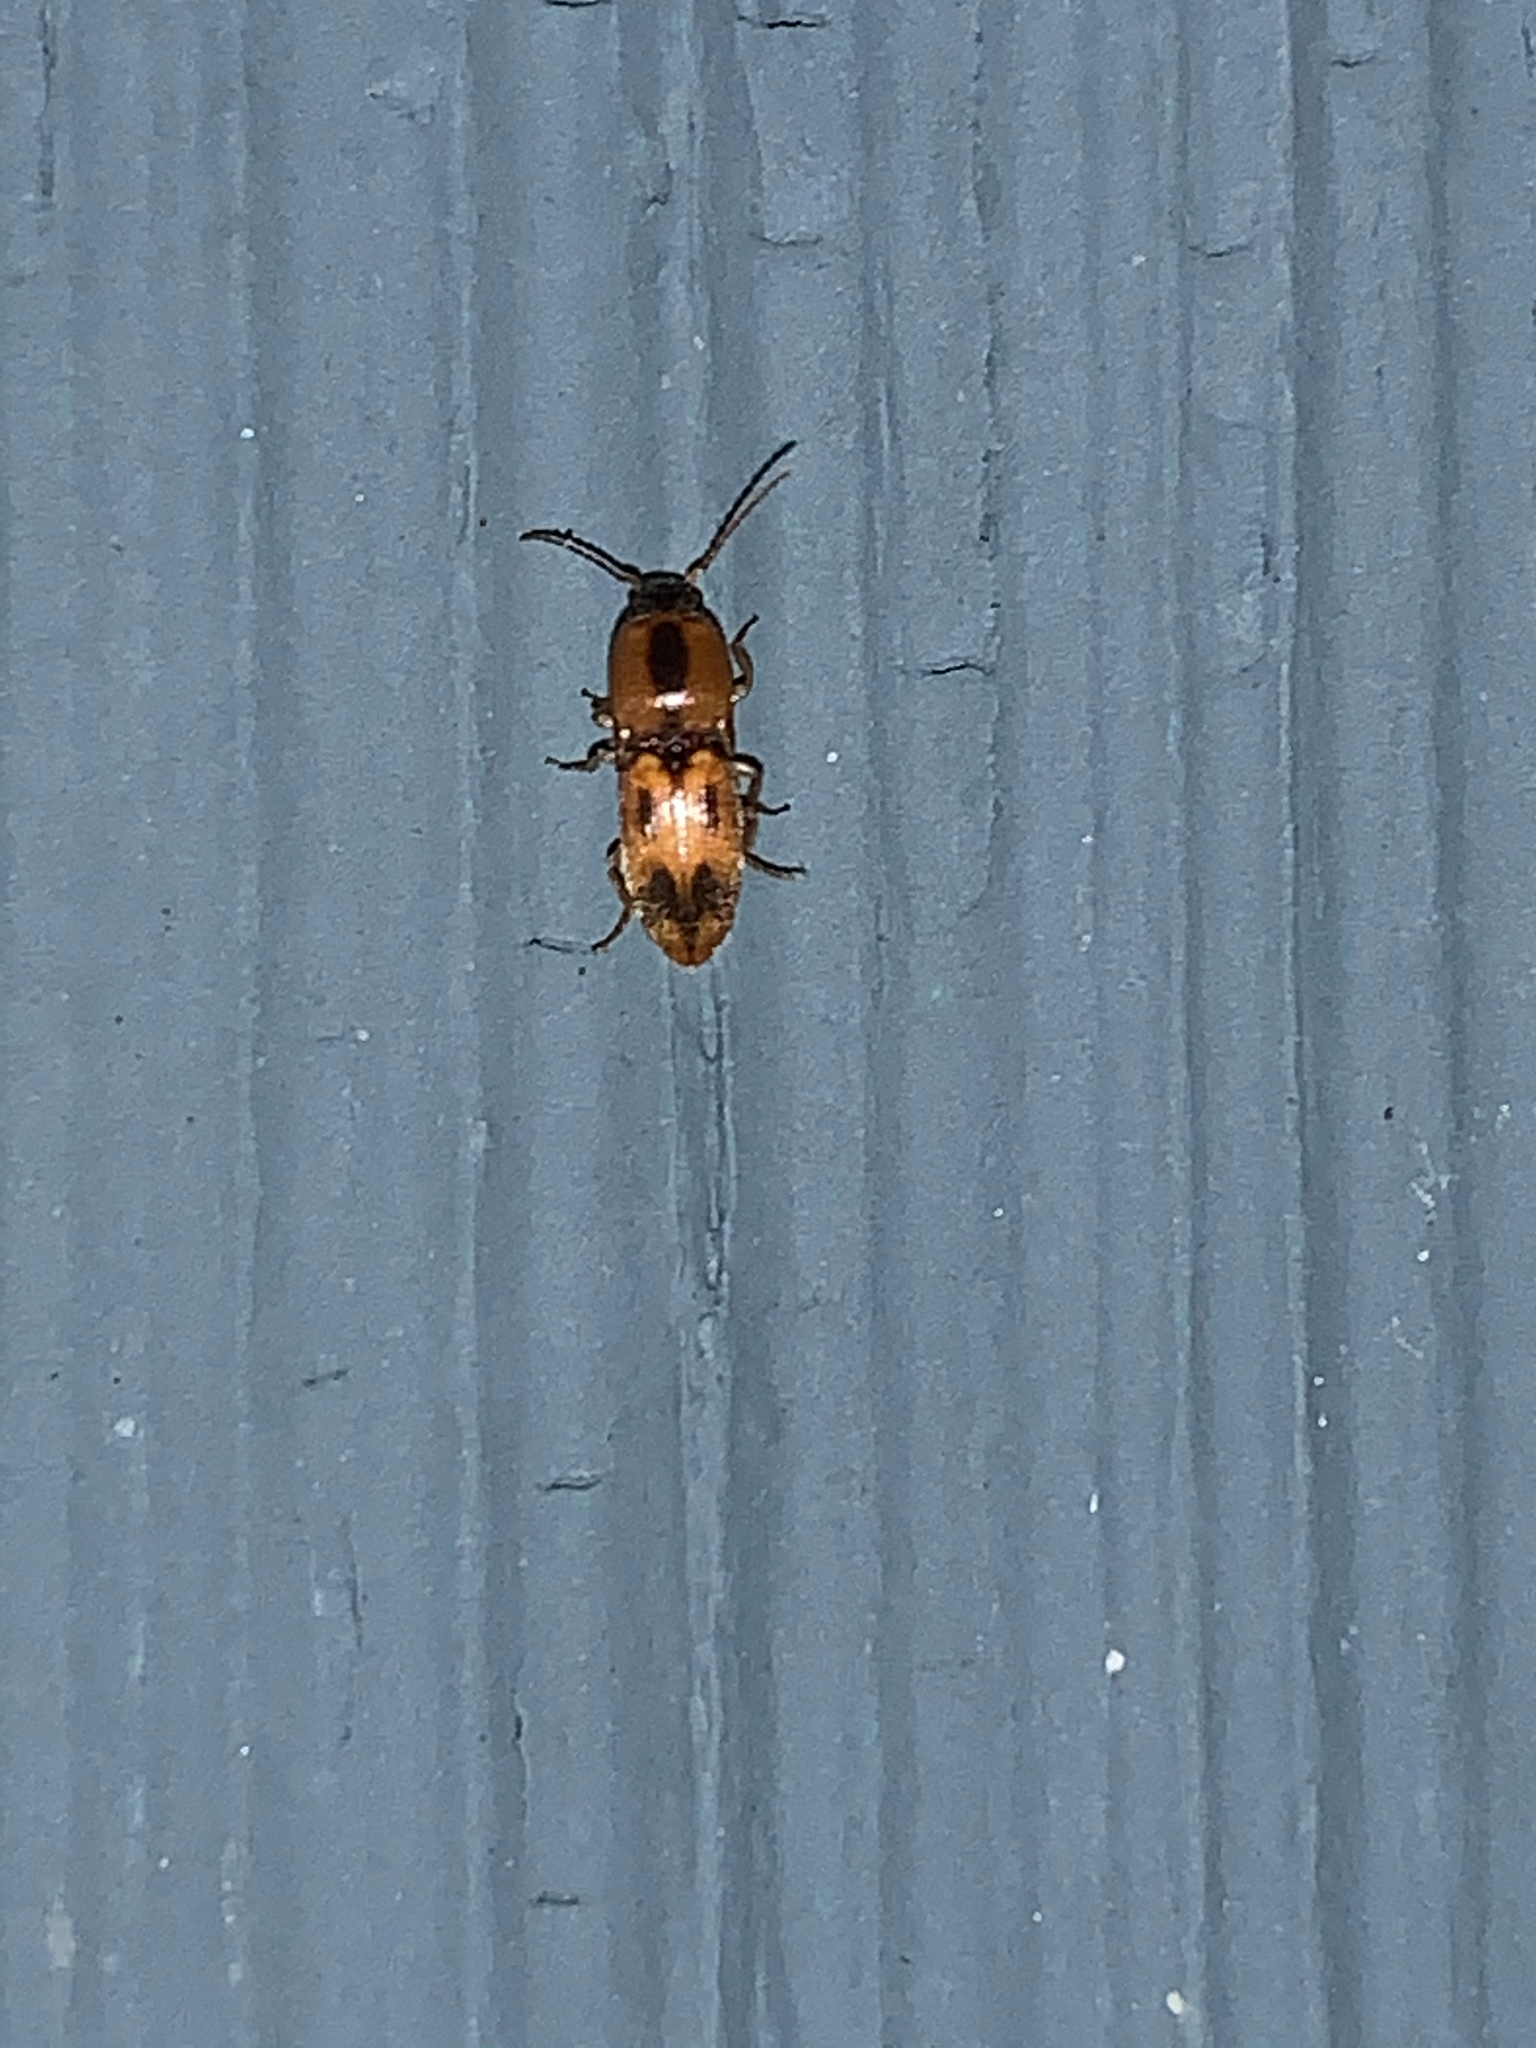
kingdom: Animalia
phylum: Arthropoda
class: Insecta
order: Coleoptera
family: Elateridae
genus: Aeolus
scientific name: Aeolus mellillus
